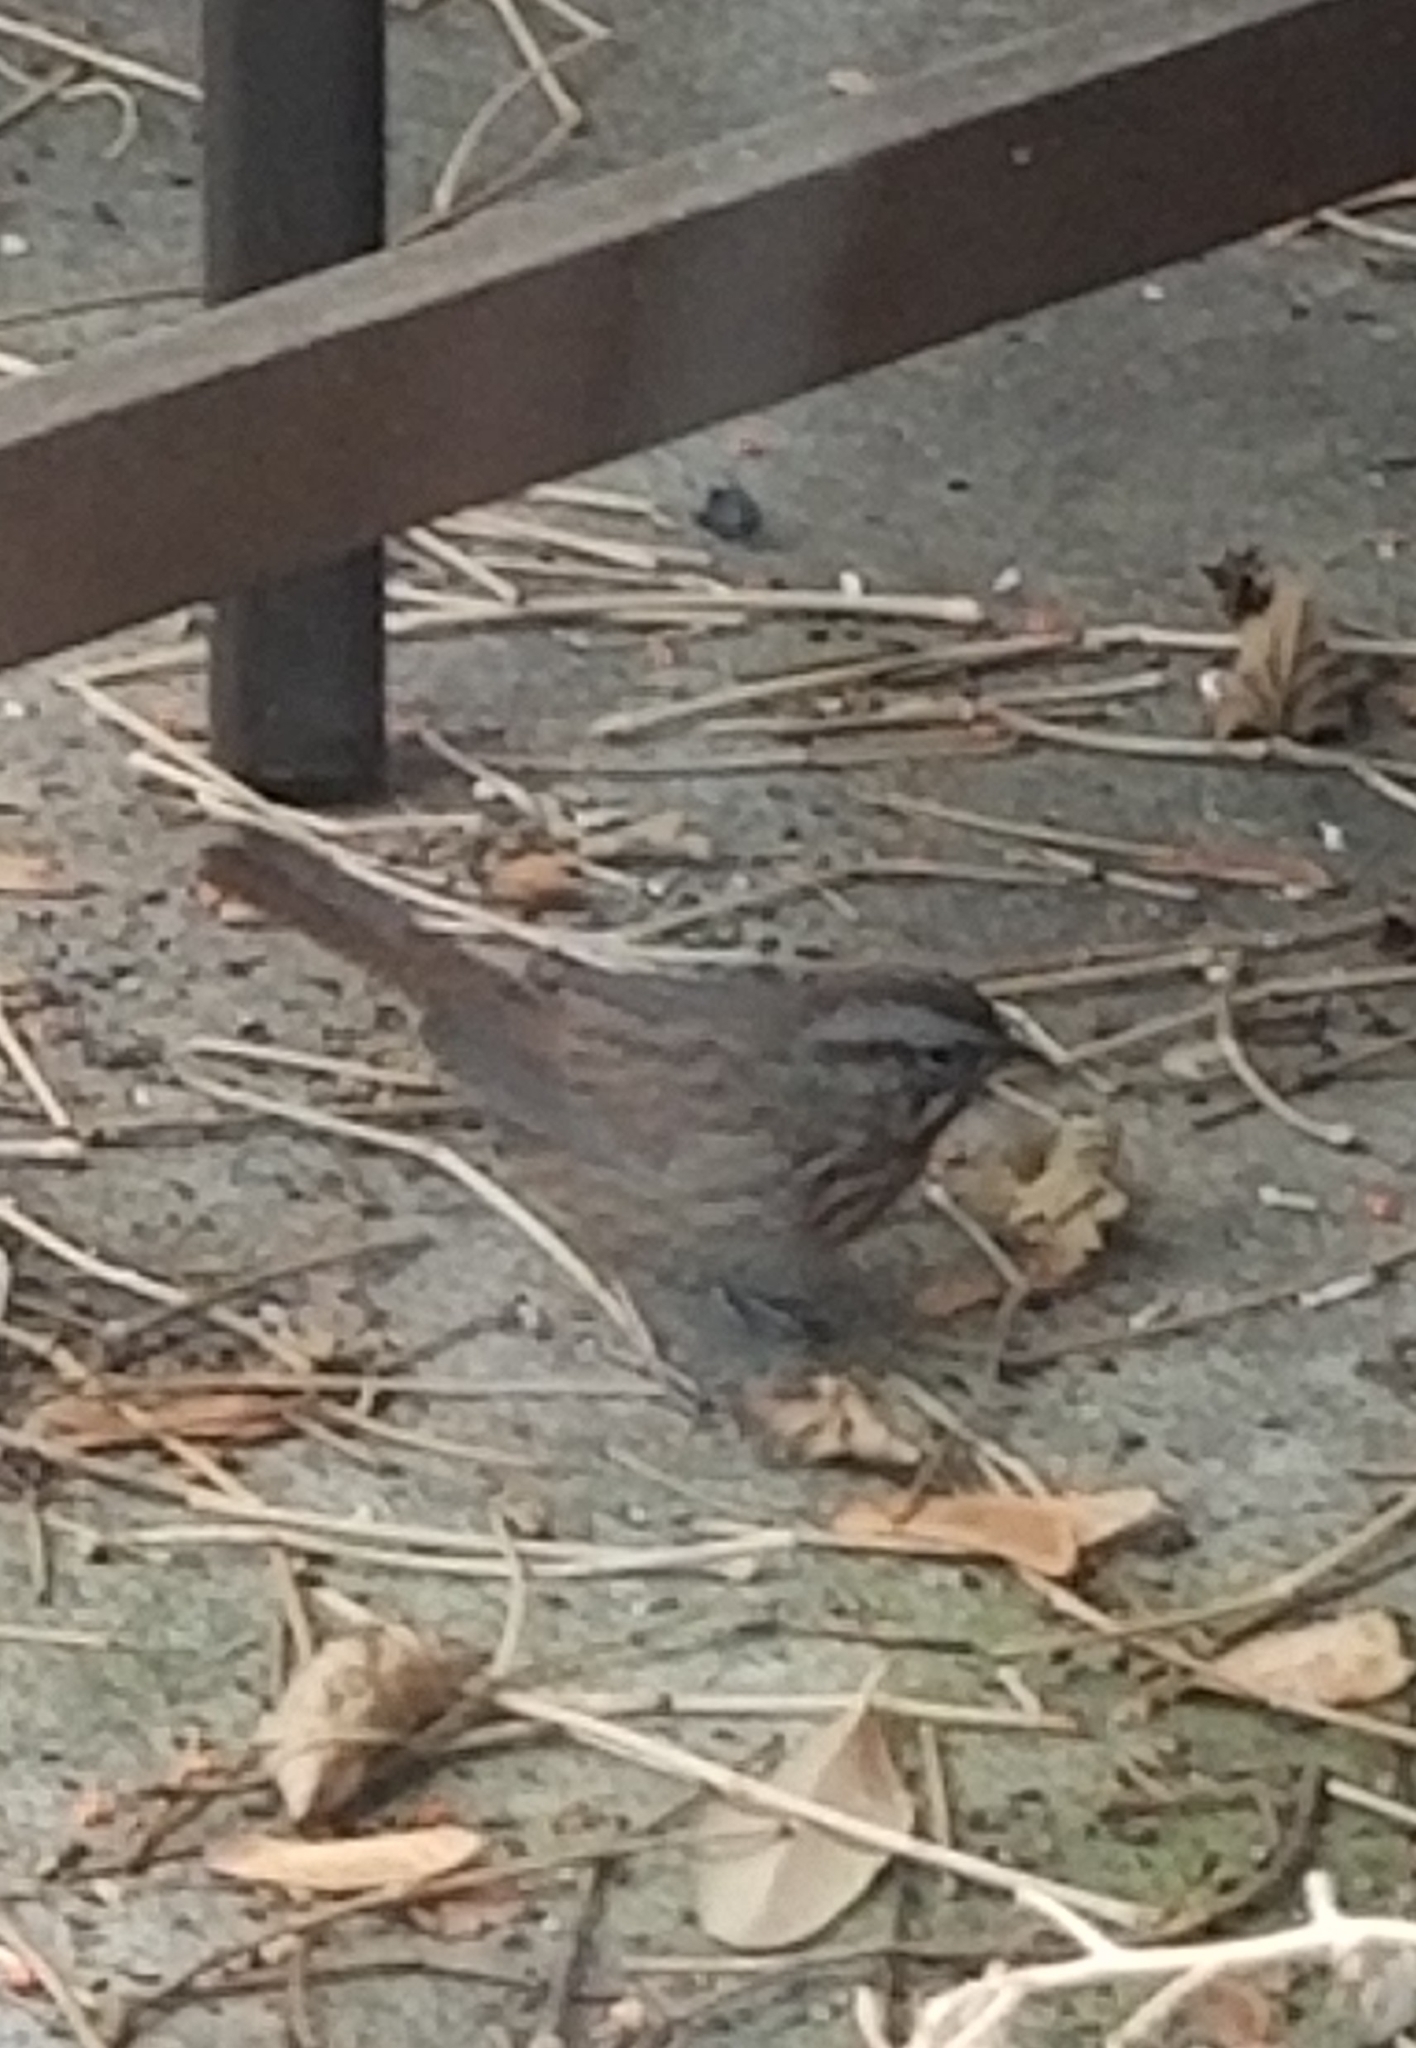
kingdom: Animalia
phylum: Chordata
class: Aves
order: Passeriformes
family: Passerellidae
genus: Melospiza
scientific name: Melospiza melodia
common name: Song sparrow
